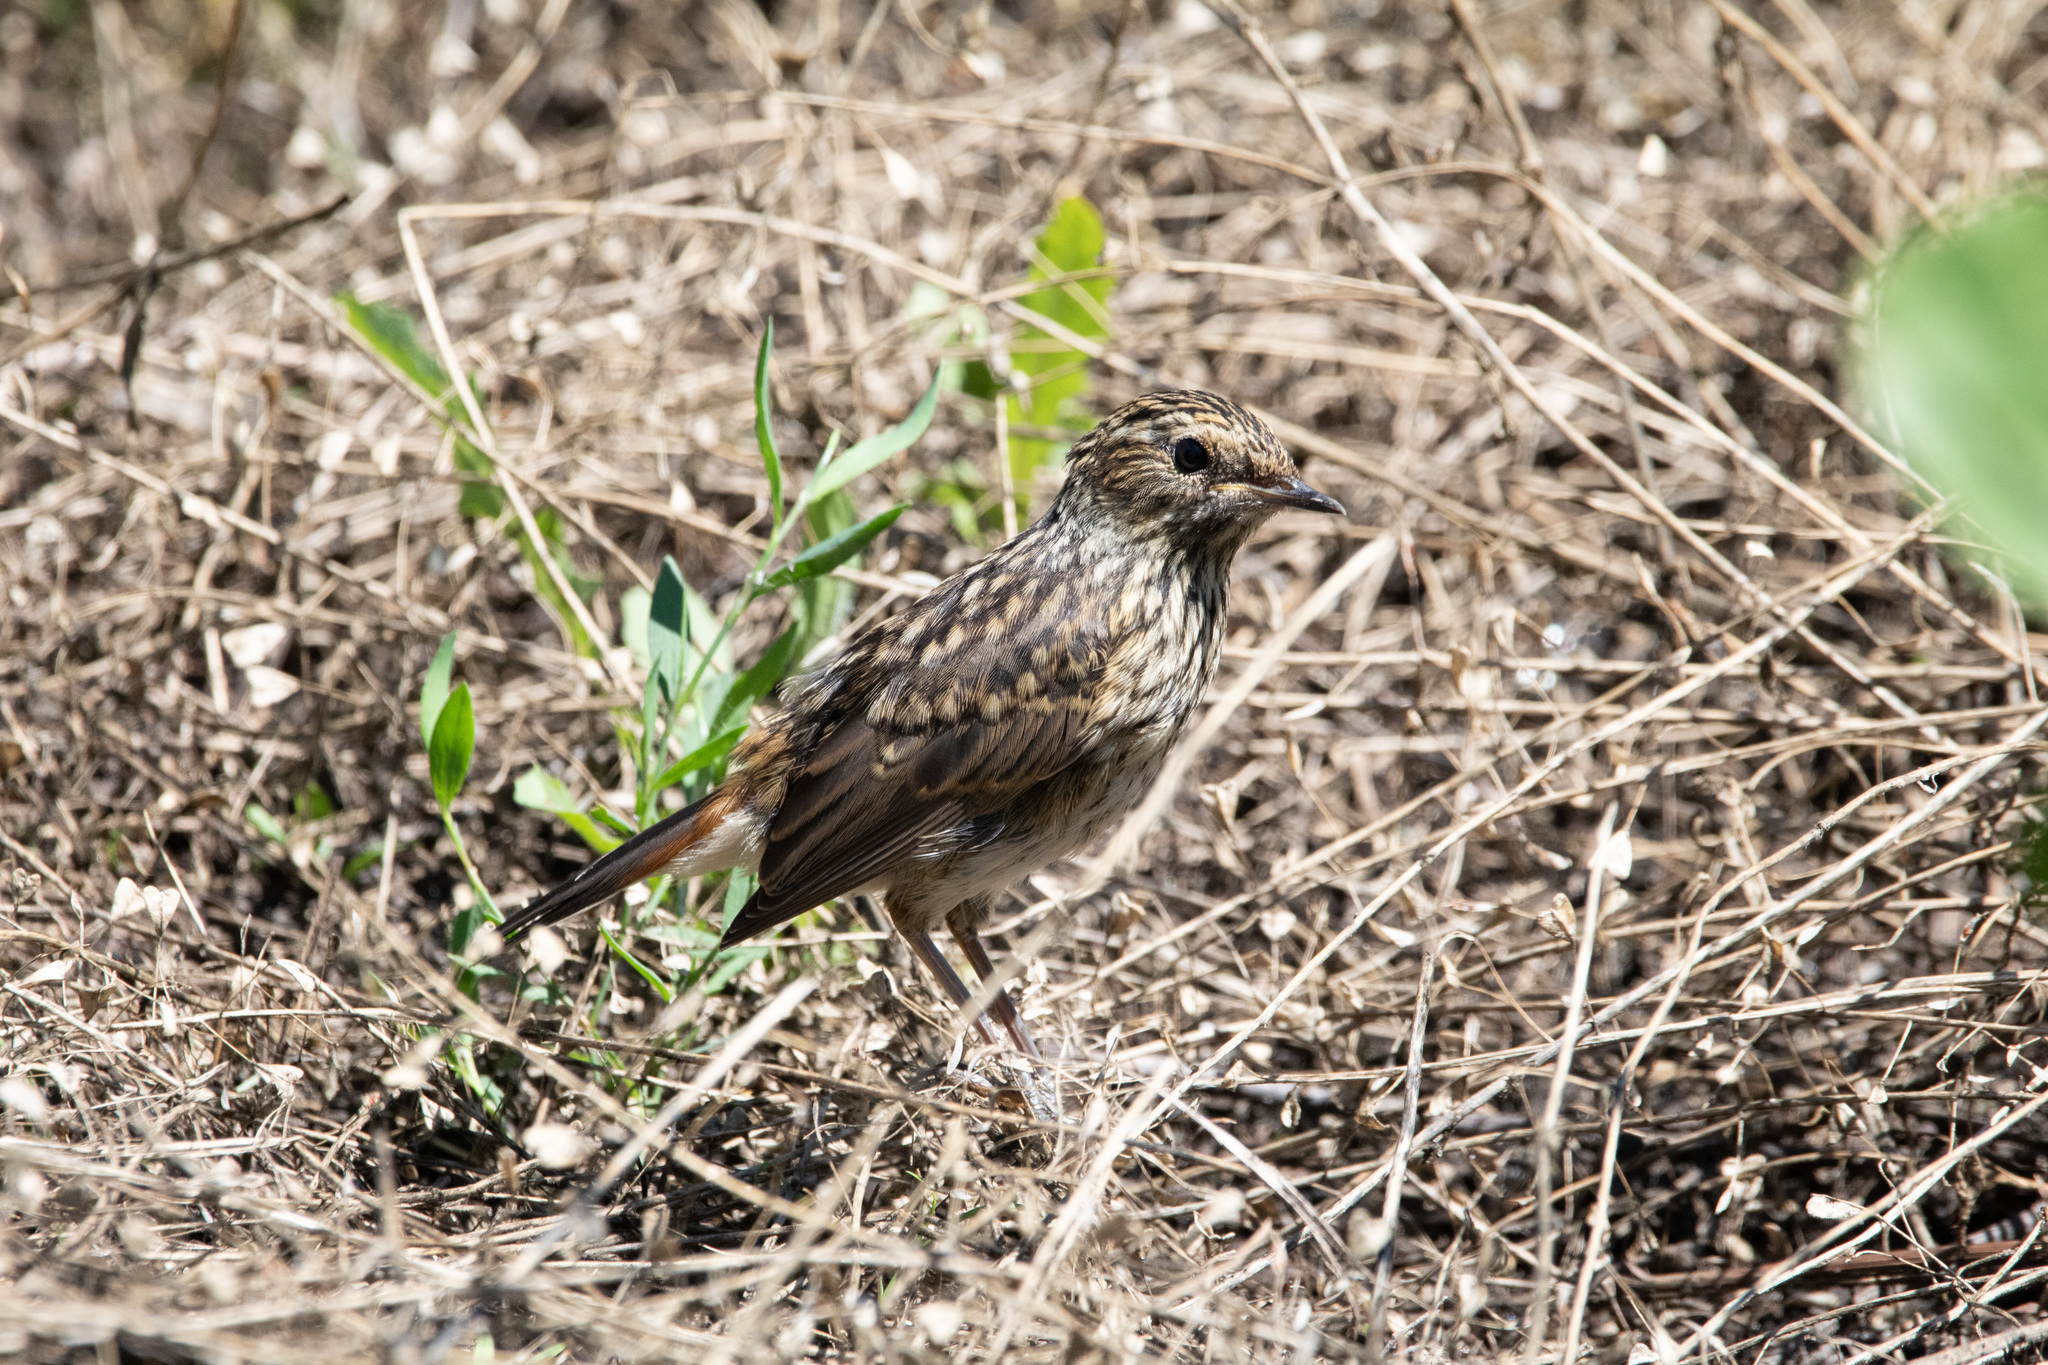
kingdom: Animalia
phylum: Chordata
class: Aves
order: Passeriformes
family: Muscicapidae
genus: Luscinia
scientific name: Luscinia svecica
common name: Bluethroat
